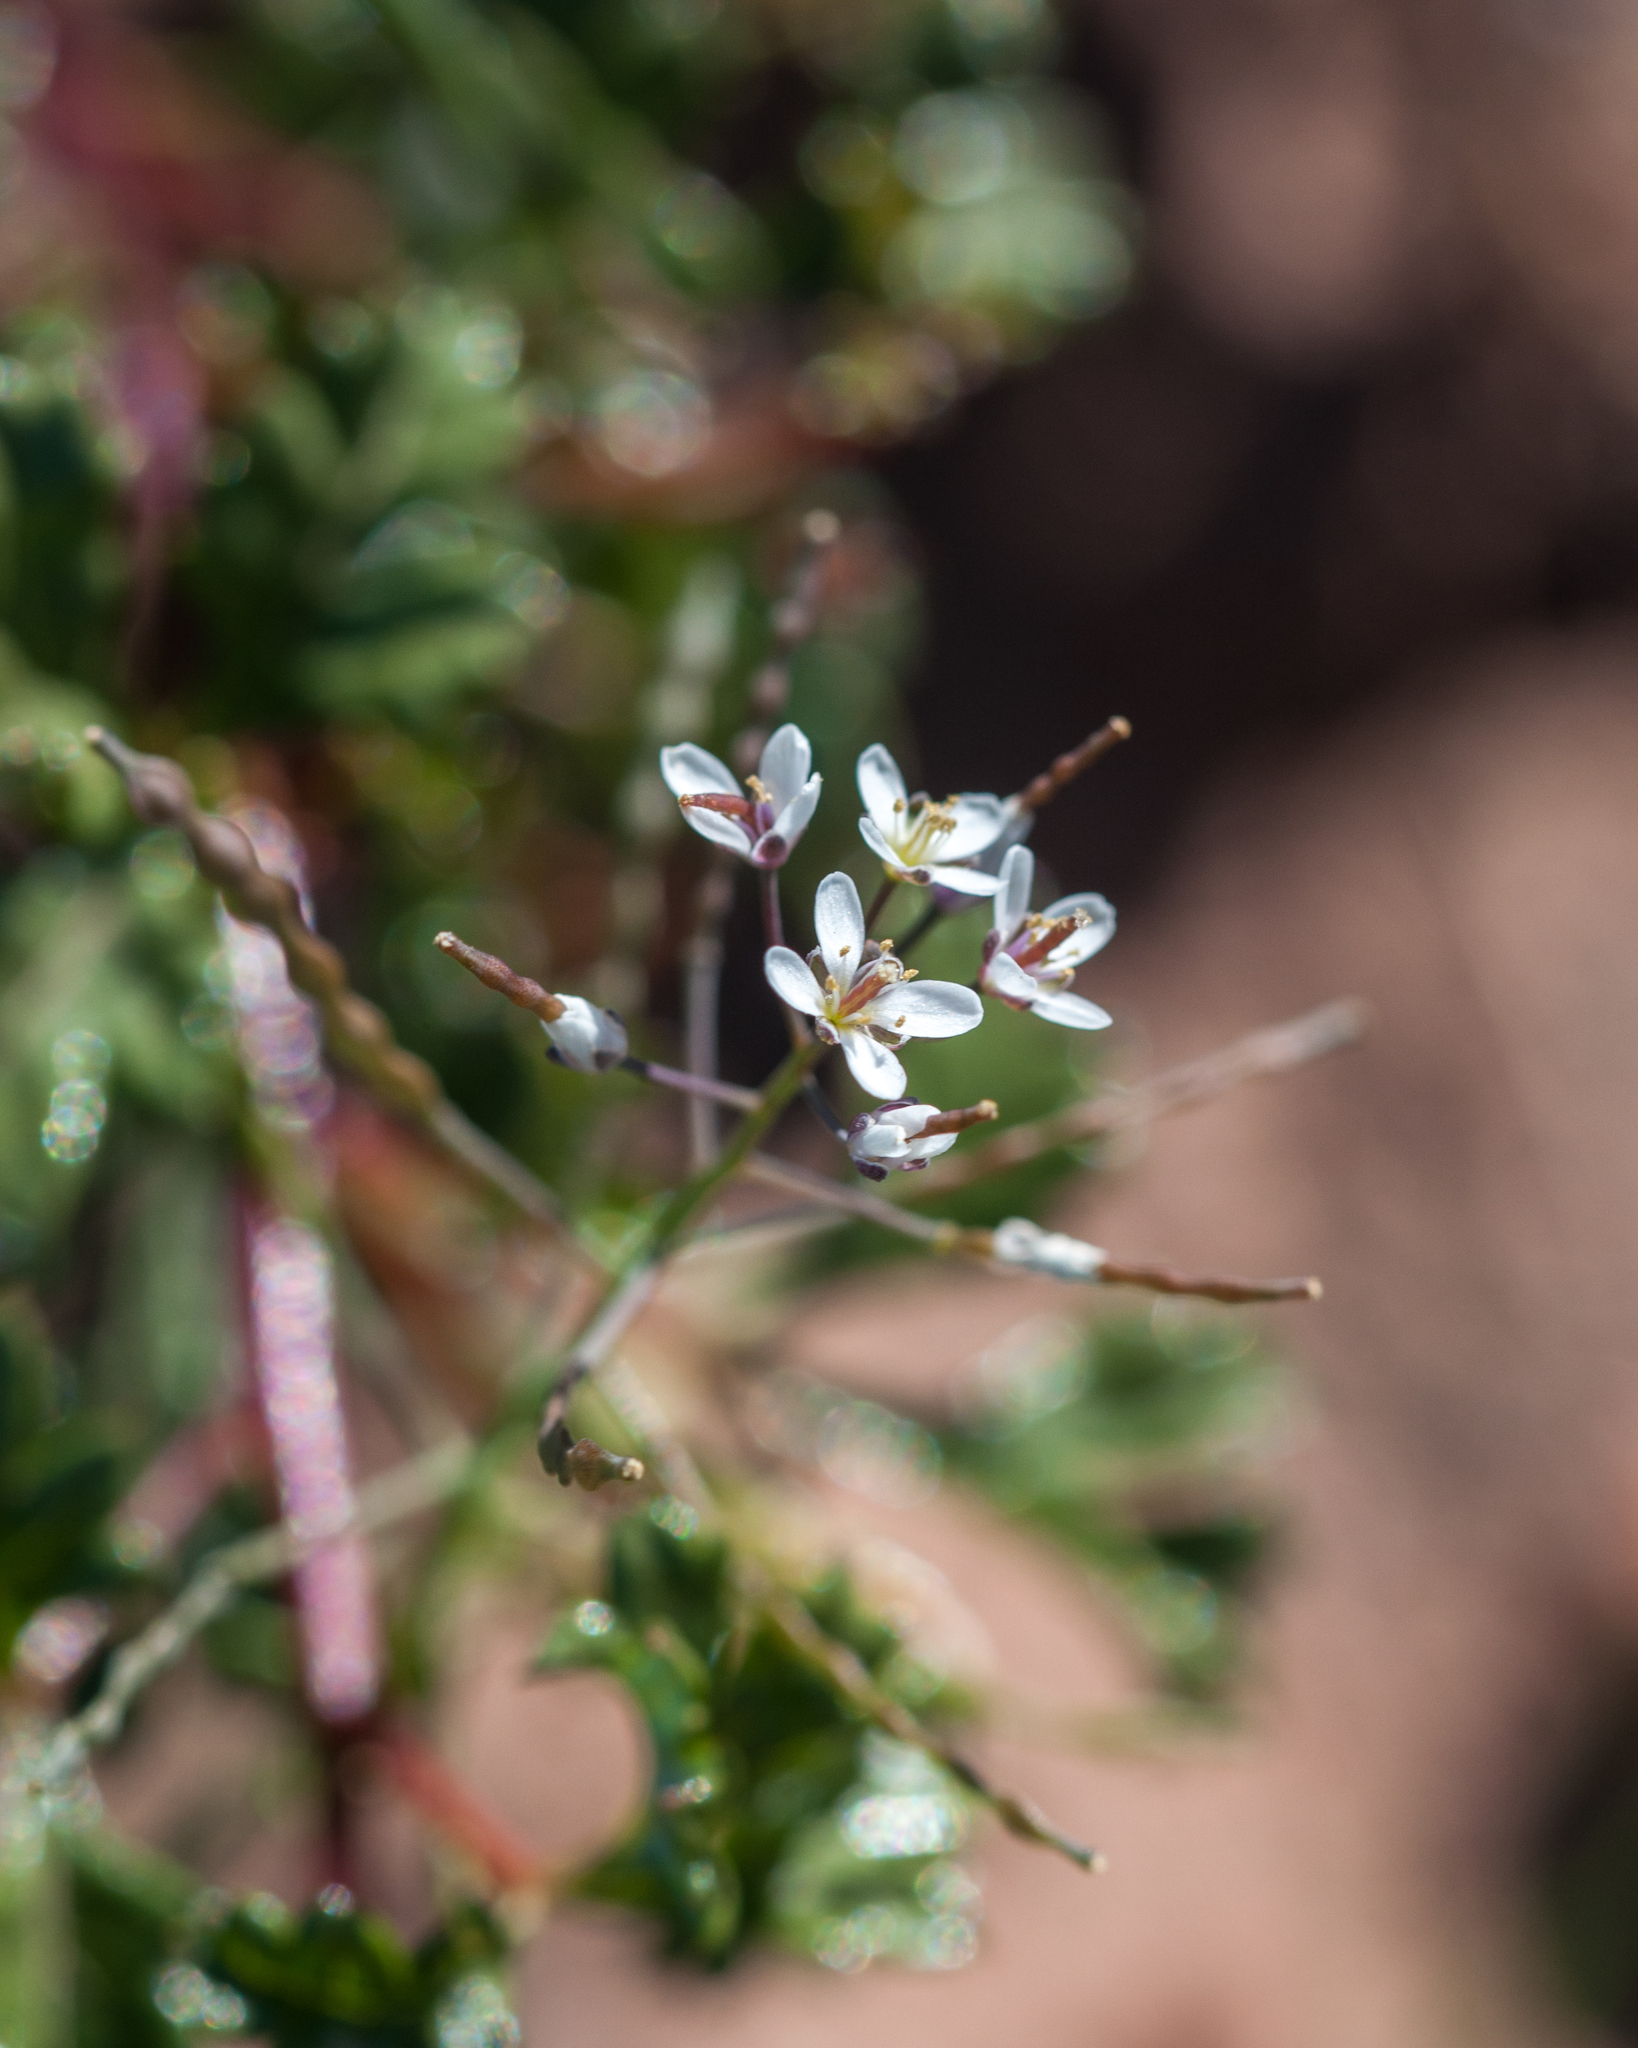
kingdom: Plantae
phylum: Tracheophyta
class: Magnoliopsida
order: Brassicales
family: Brassicaceae
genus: Heliophila
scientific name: Heliophila pusilla
